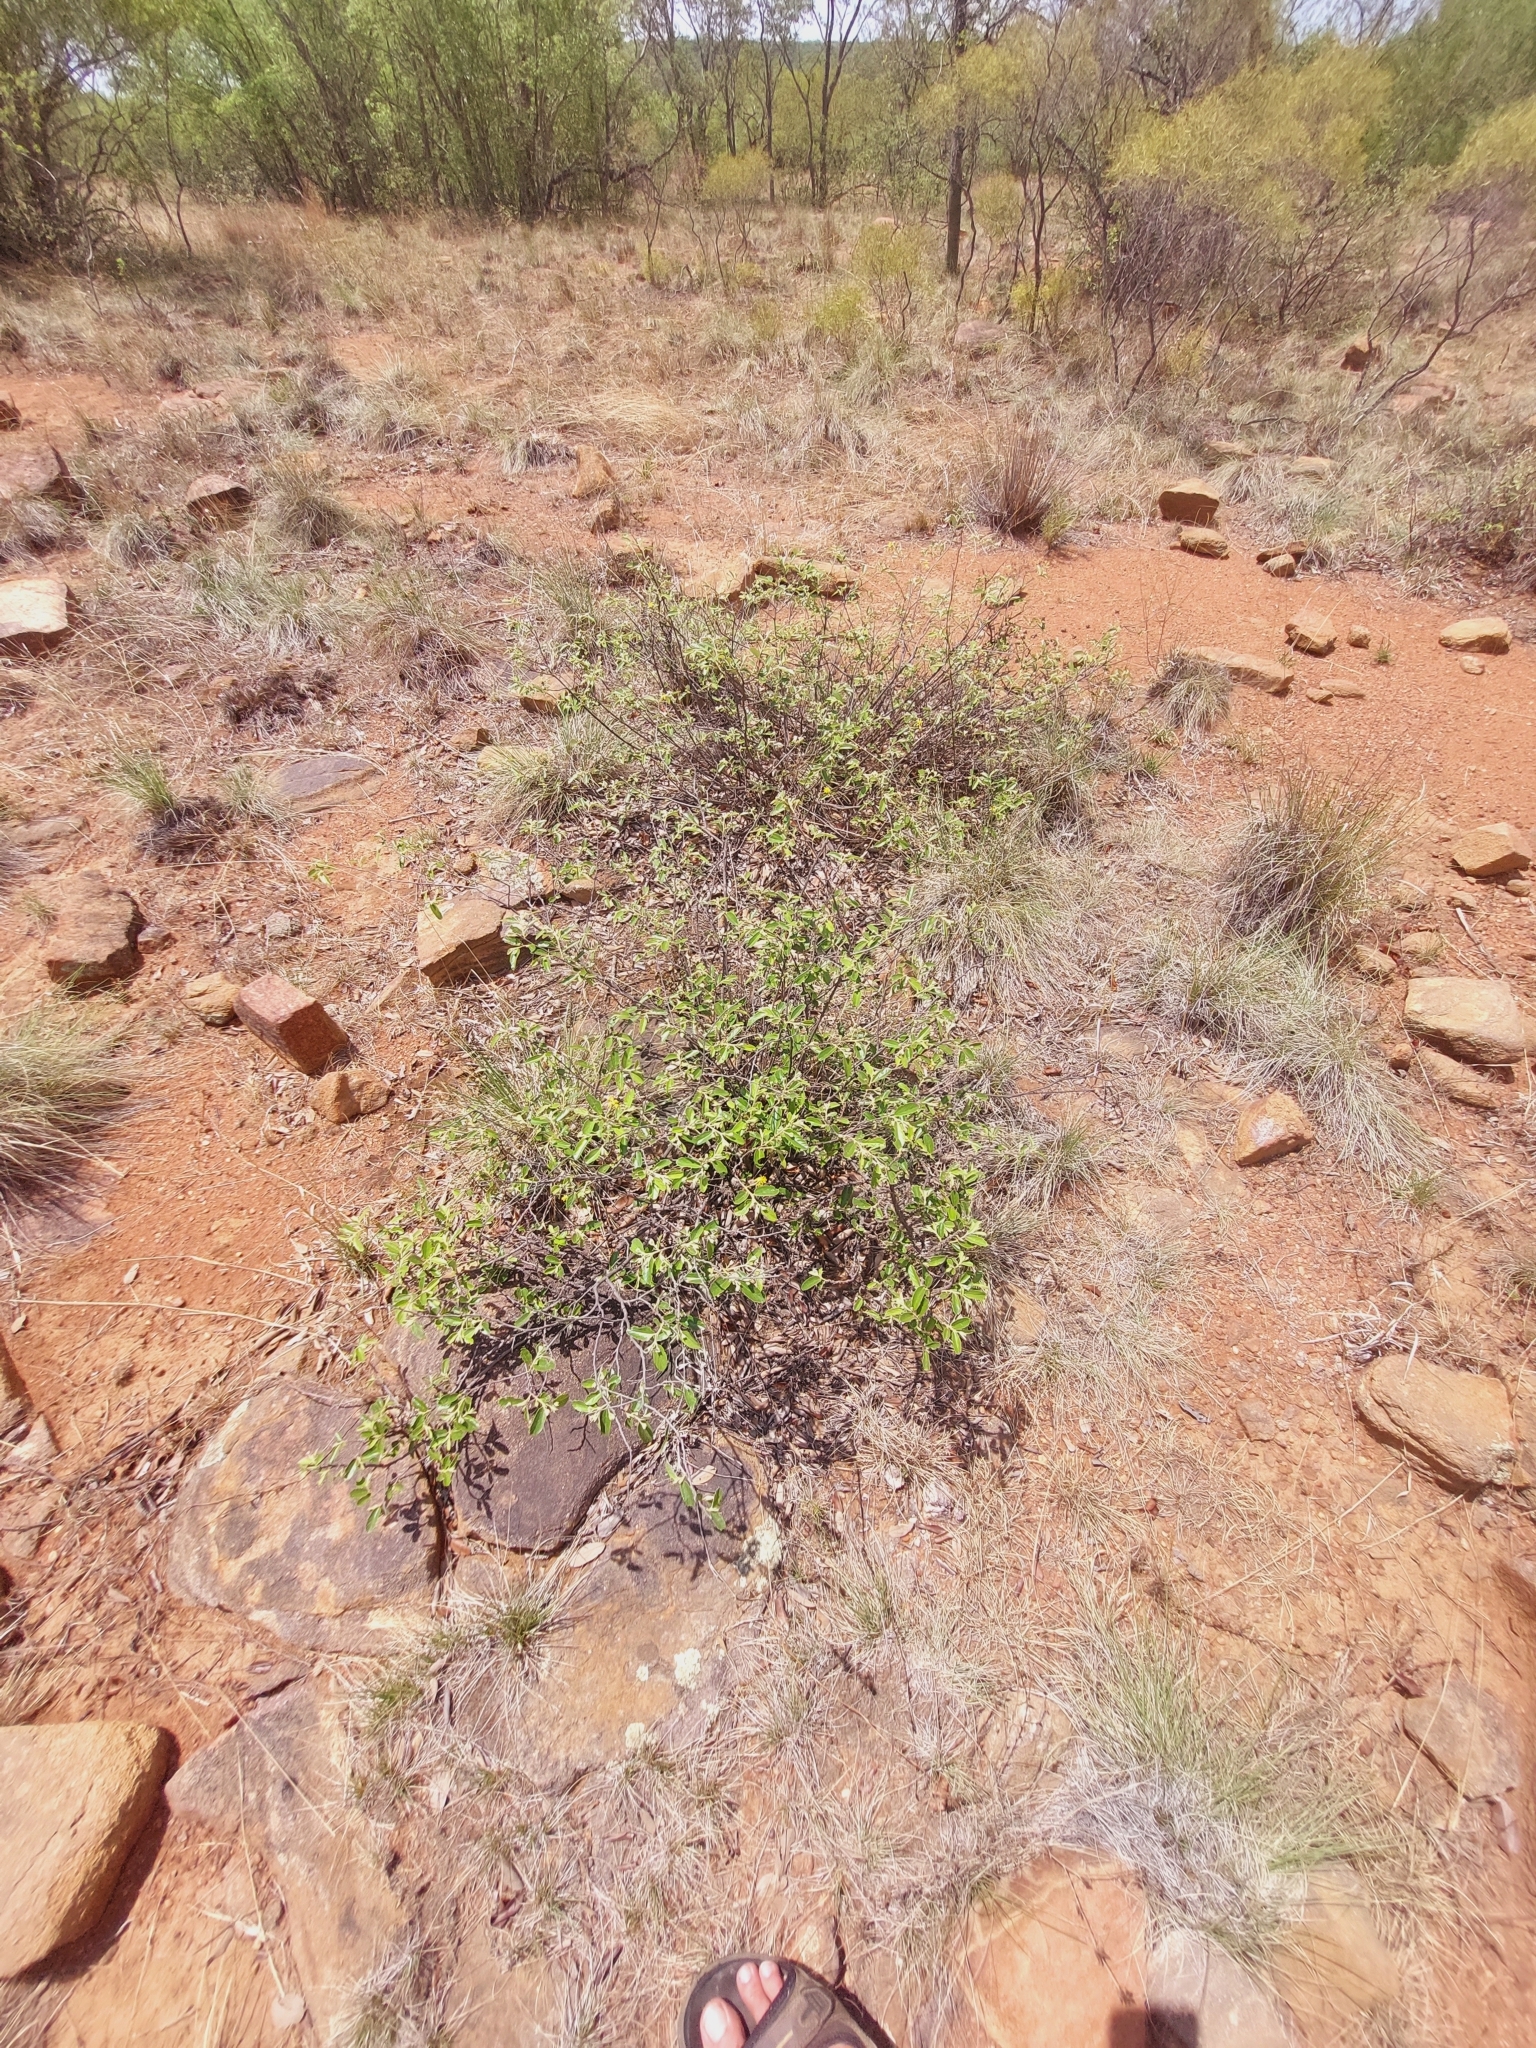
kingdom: Plantae
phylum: Tracheophyta
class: Magnoliopsida
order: Malvales
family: Malvaceae
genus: Grewia
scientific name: Grewia rogersii
